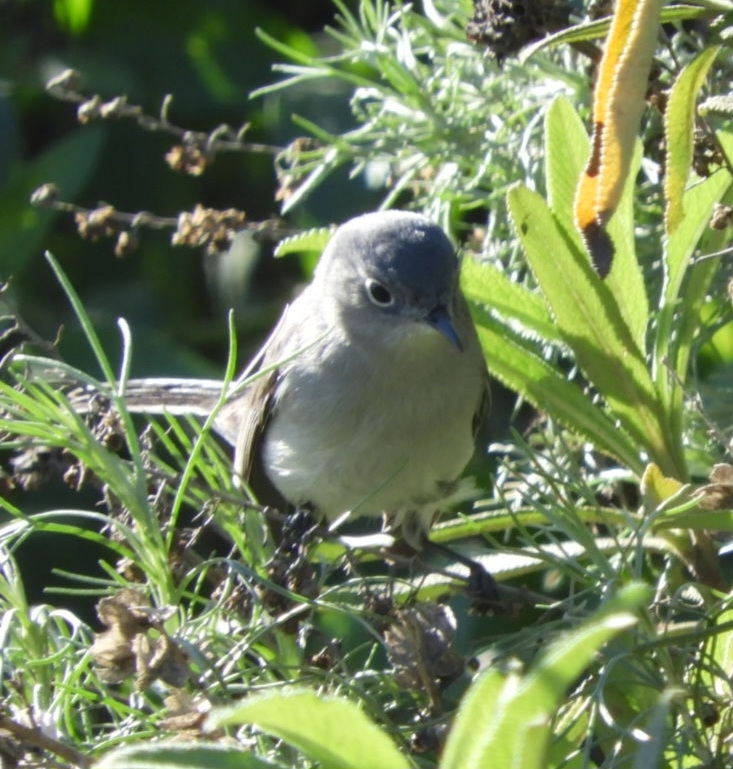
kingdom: Animalia
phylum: Chordata
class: Aves
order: Passeriformes
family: Polioptilidae
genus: Polioptila
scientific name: Polioptila caerulea
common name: Blue-gray gnatcatcher
